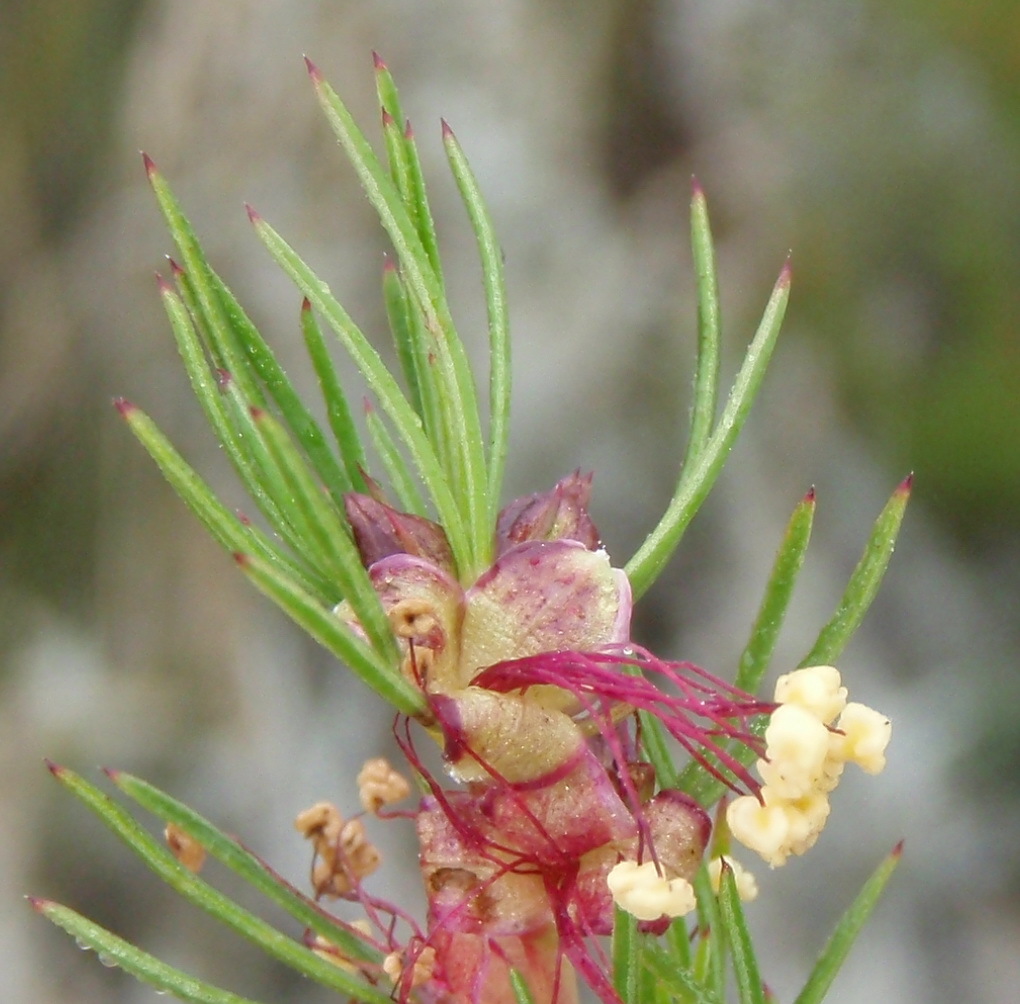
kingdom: Plantae
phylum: Tracheophyta
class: Magnoliopsida
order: Rosales
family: Rosaceae
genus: Cliffortia
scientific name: Cliffortia burchellii
